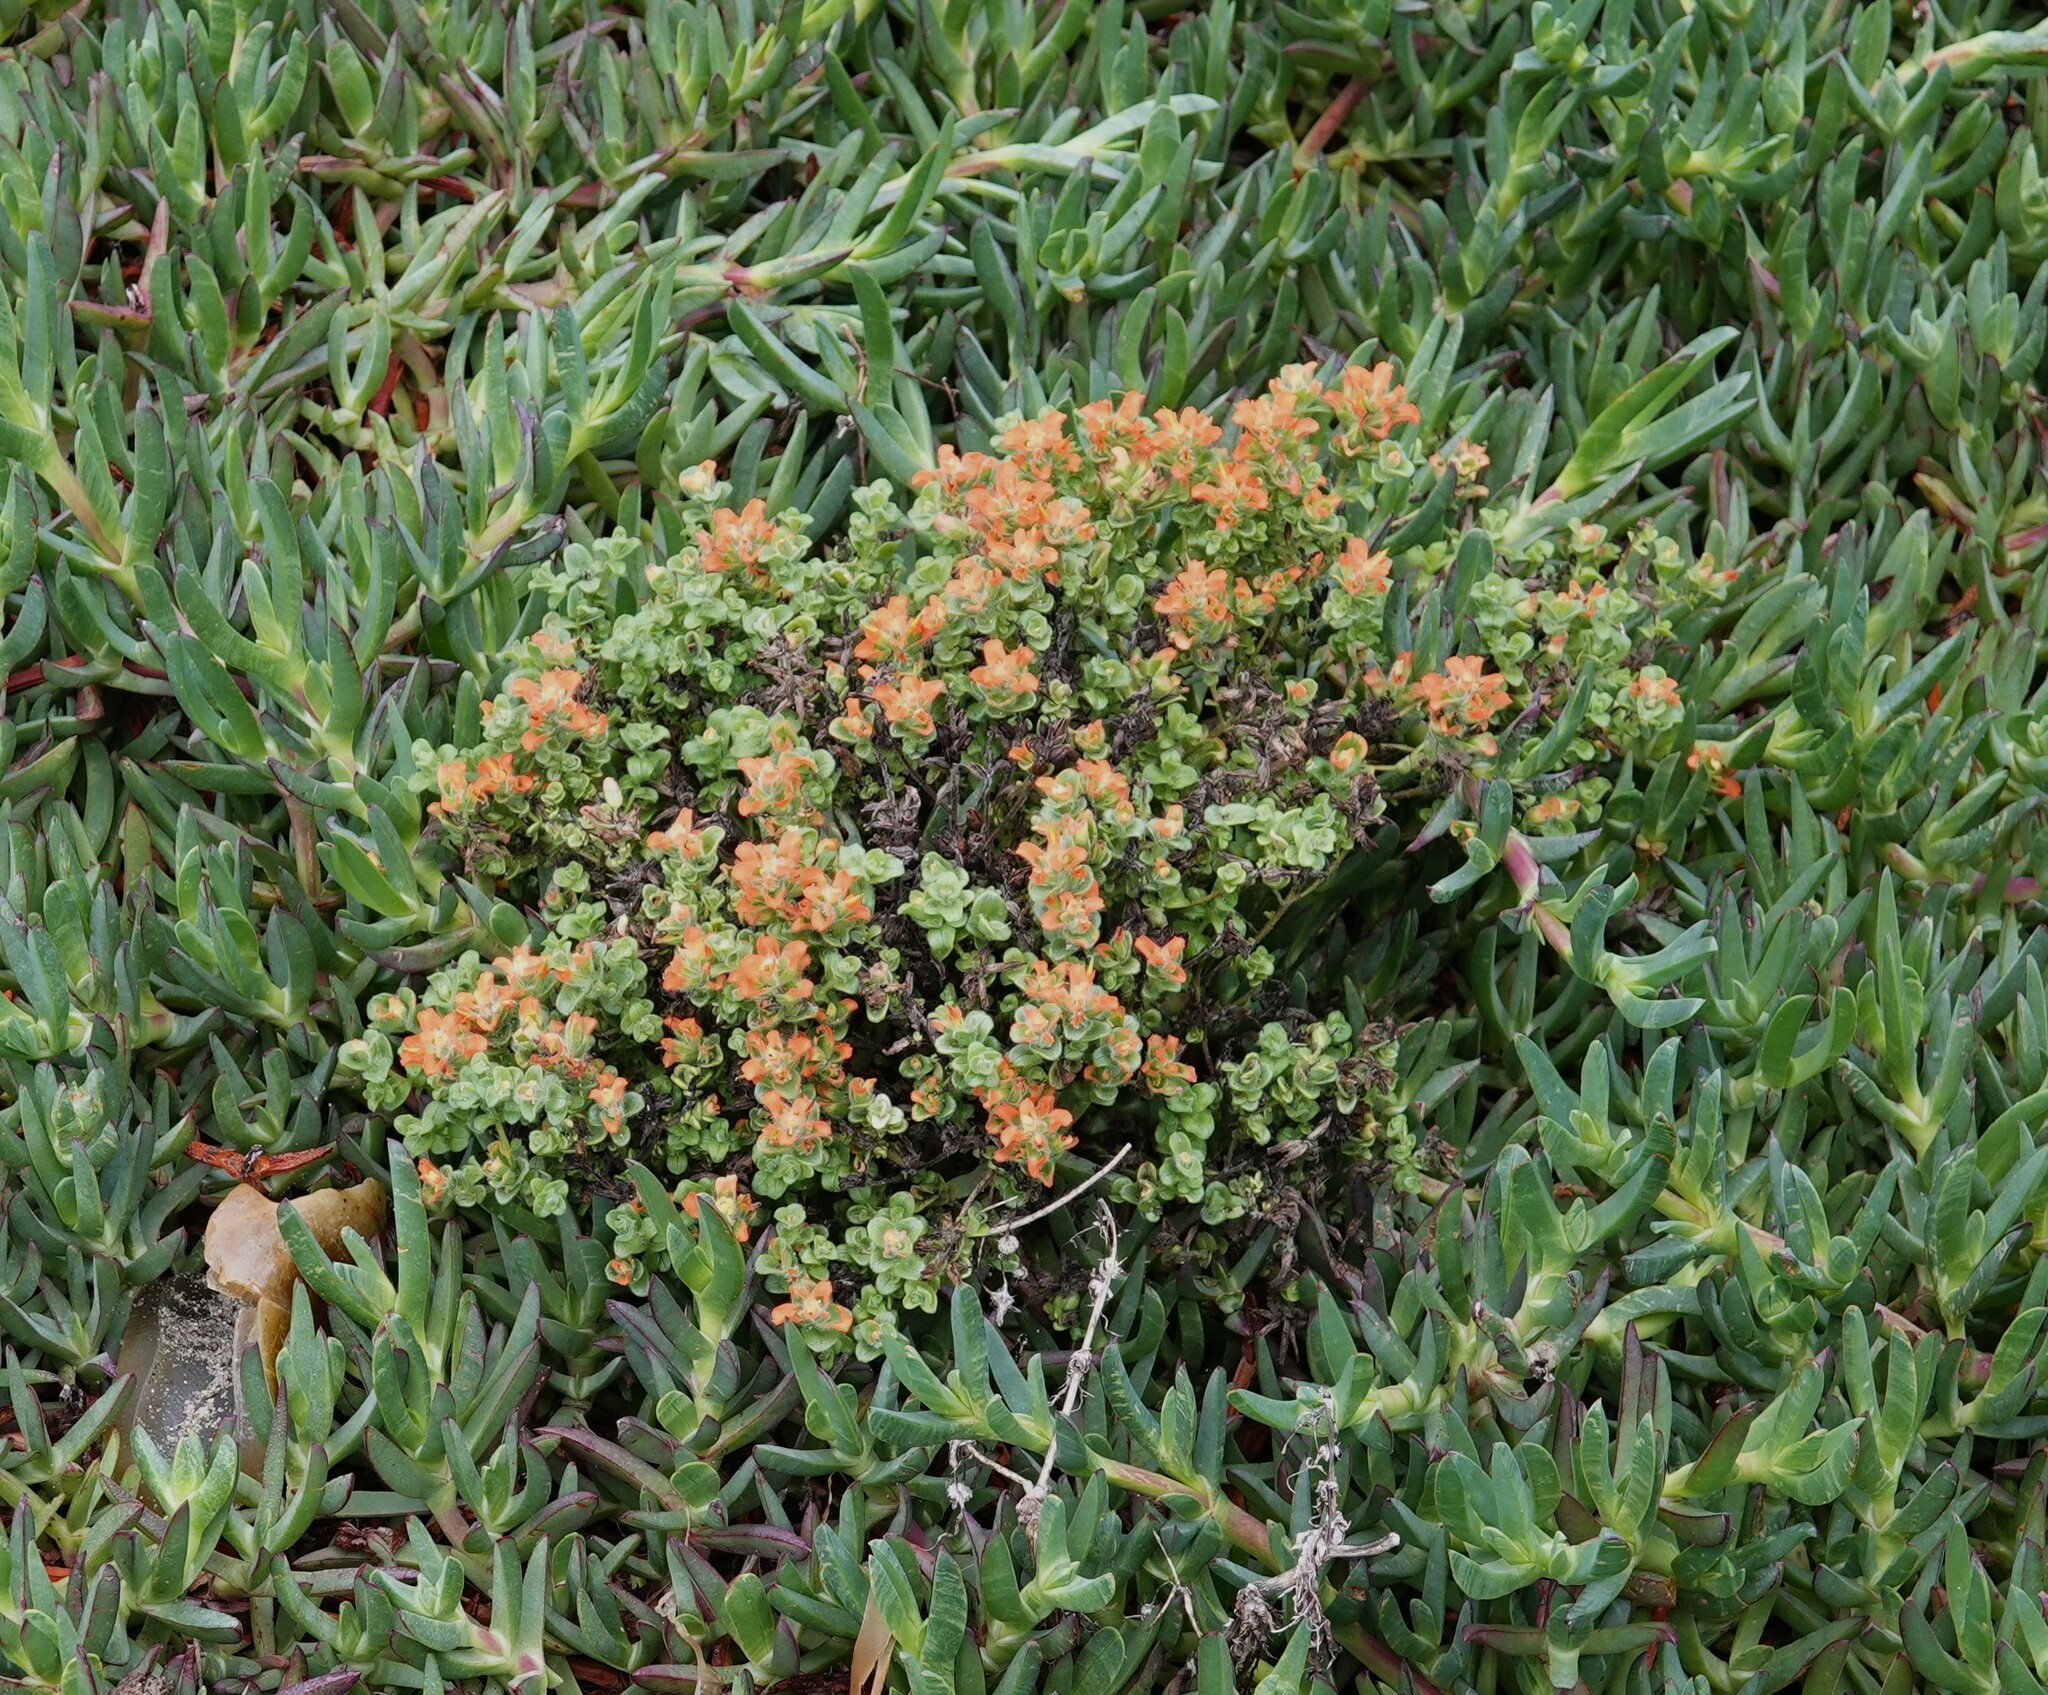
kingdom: Plantae
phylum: Tracheophyta
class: Magnoliopsida
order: Lamiales
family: Orobanchaceae
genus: Castilleja
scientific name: Castilleja latifolia
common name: Monterey indian paintbrush
